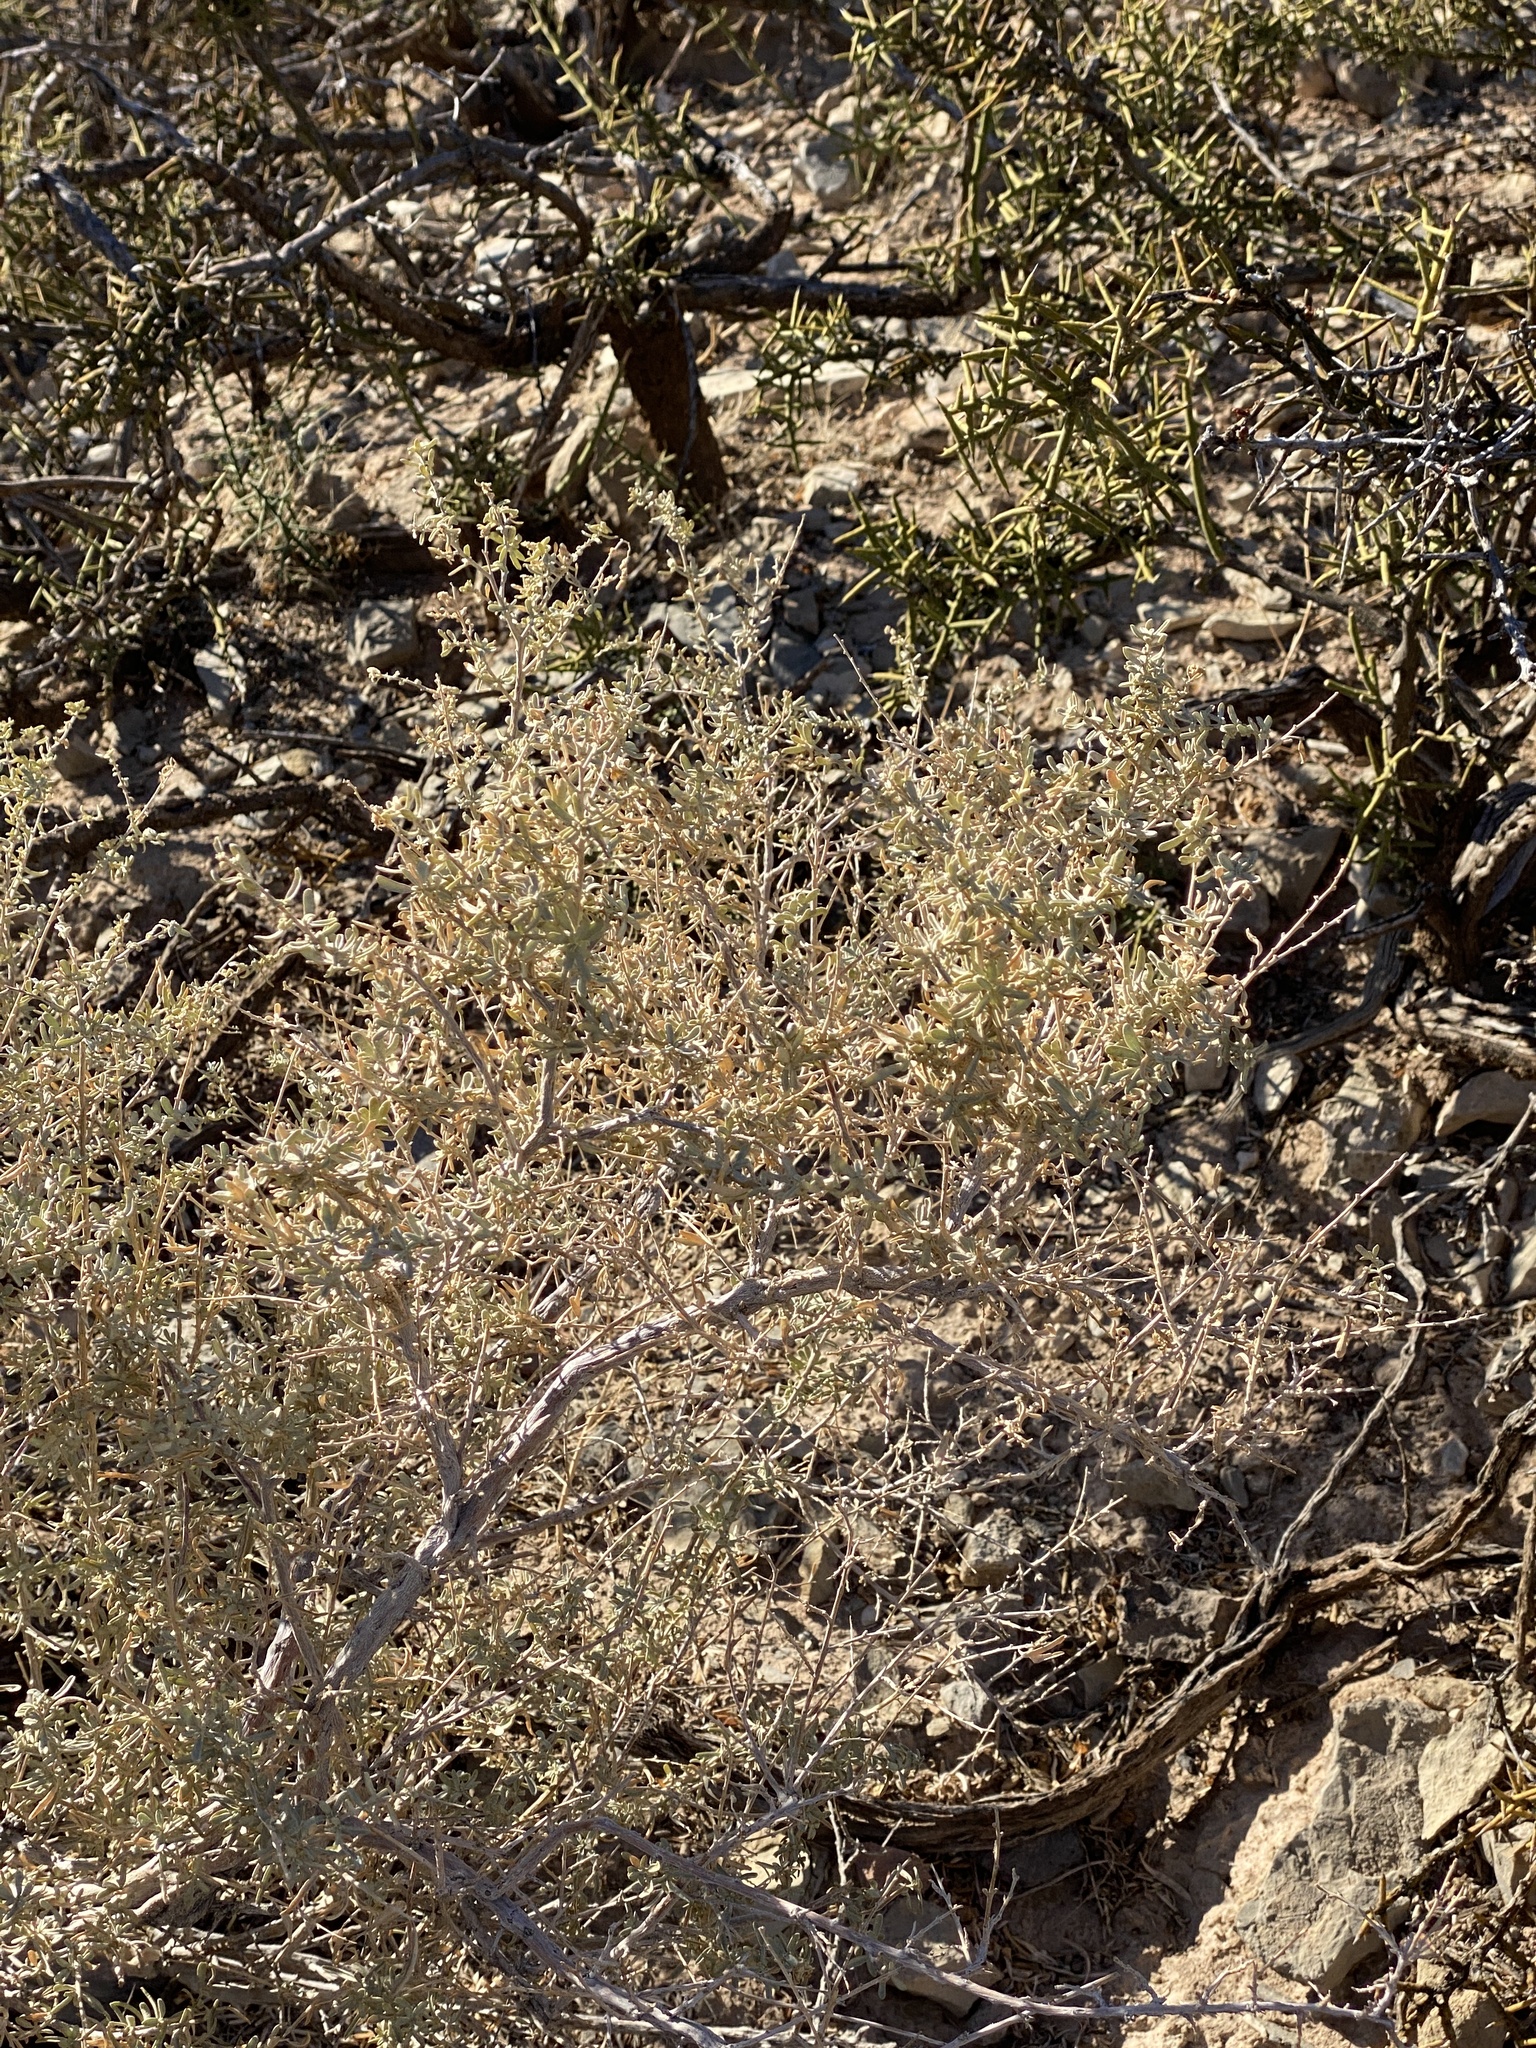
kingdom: Plantae
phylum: Tracheophyta
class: Magnoliopsida
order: Caryophyllales
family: Amaranthaceae
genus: Atriplex
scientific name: Atriplex canescens
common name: Four-wing saltbush
